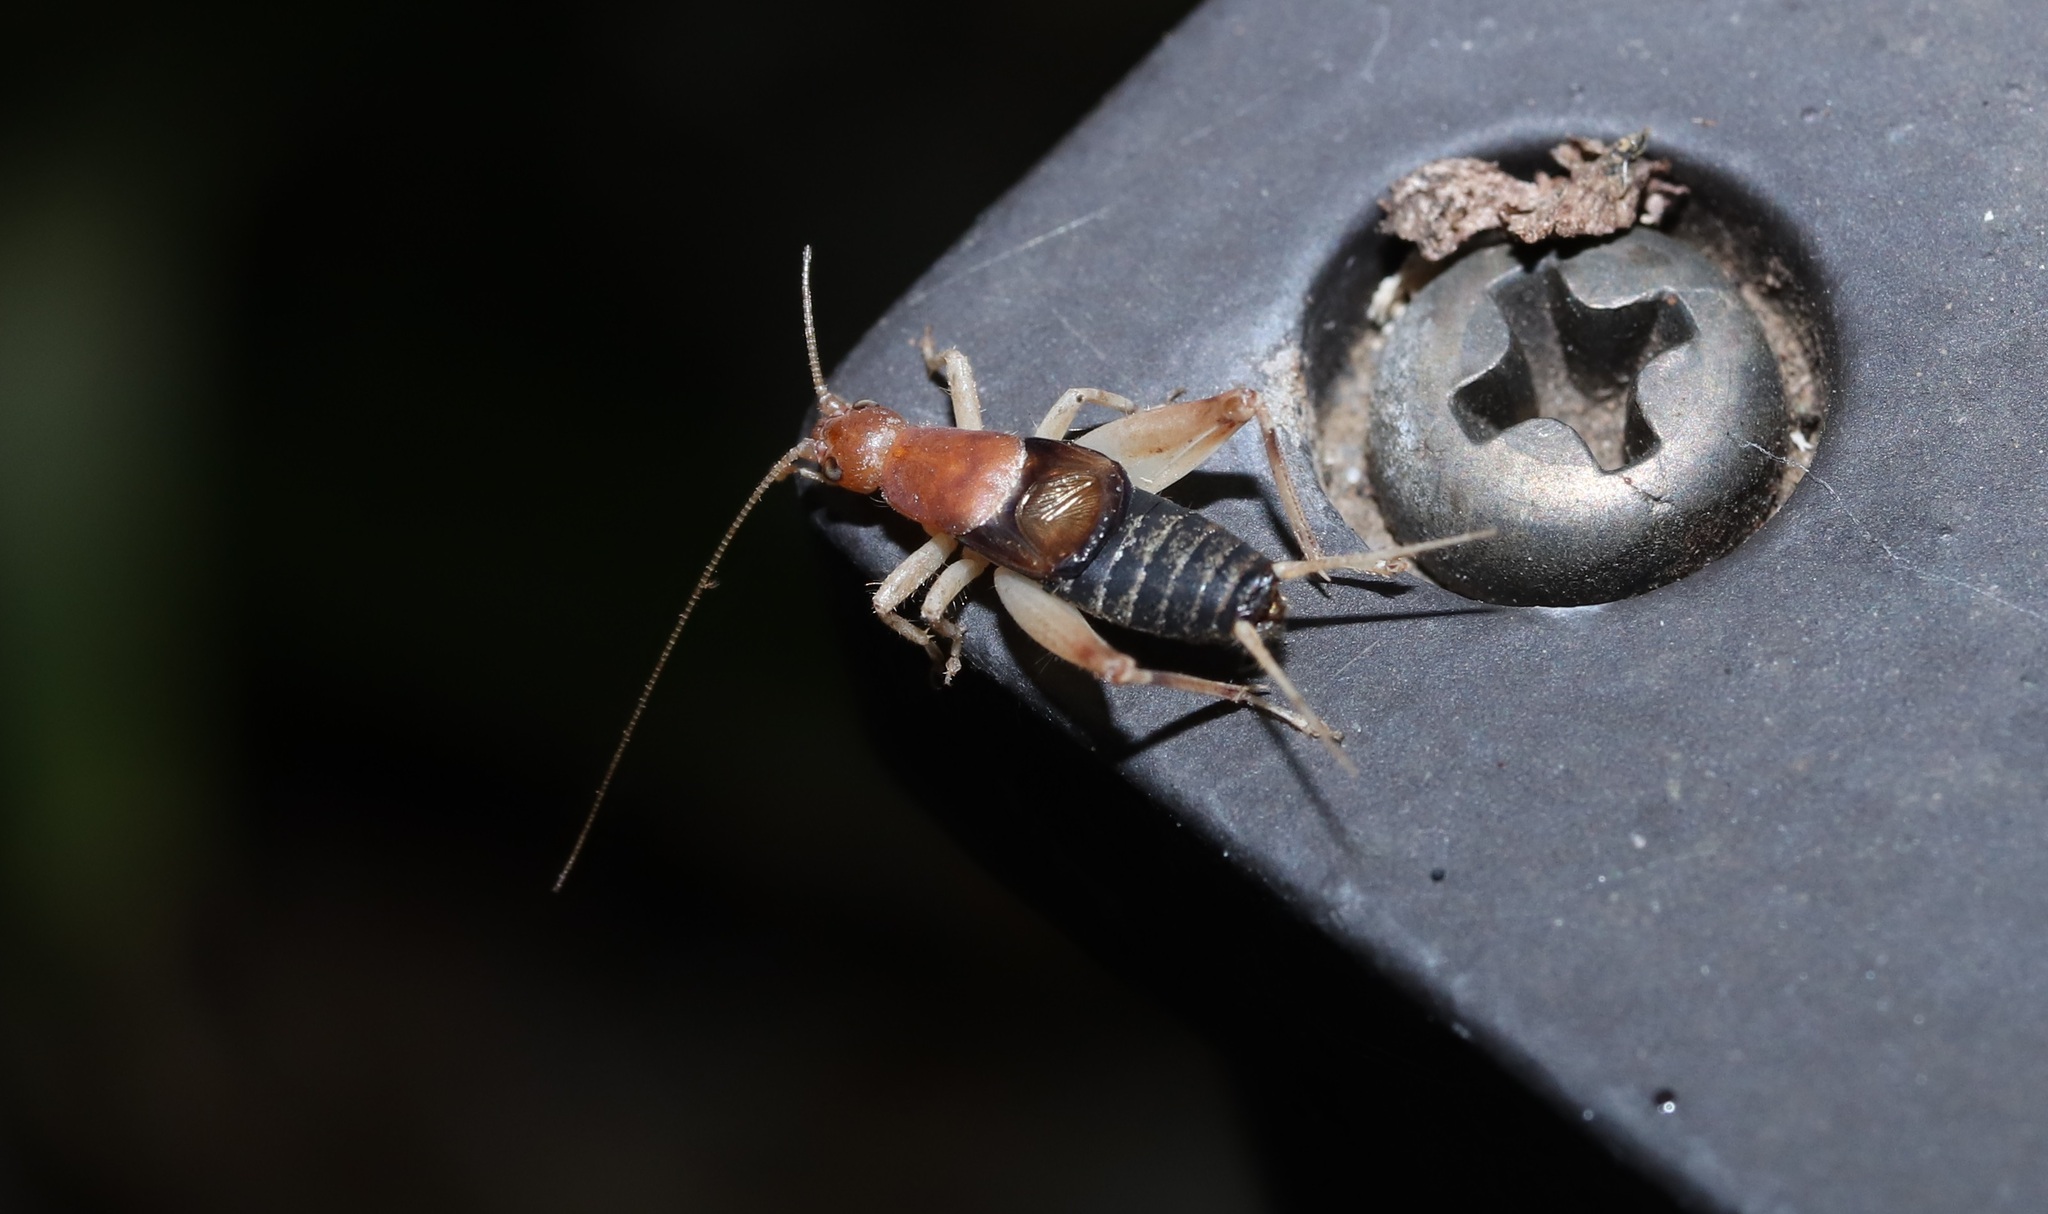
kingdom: Animalia
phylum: Arthropoda
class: Insecta
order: Orthoptera
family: Mogoplistidae
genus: Ornebius
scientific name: Ornebius kanetataki
